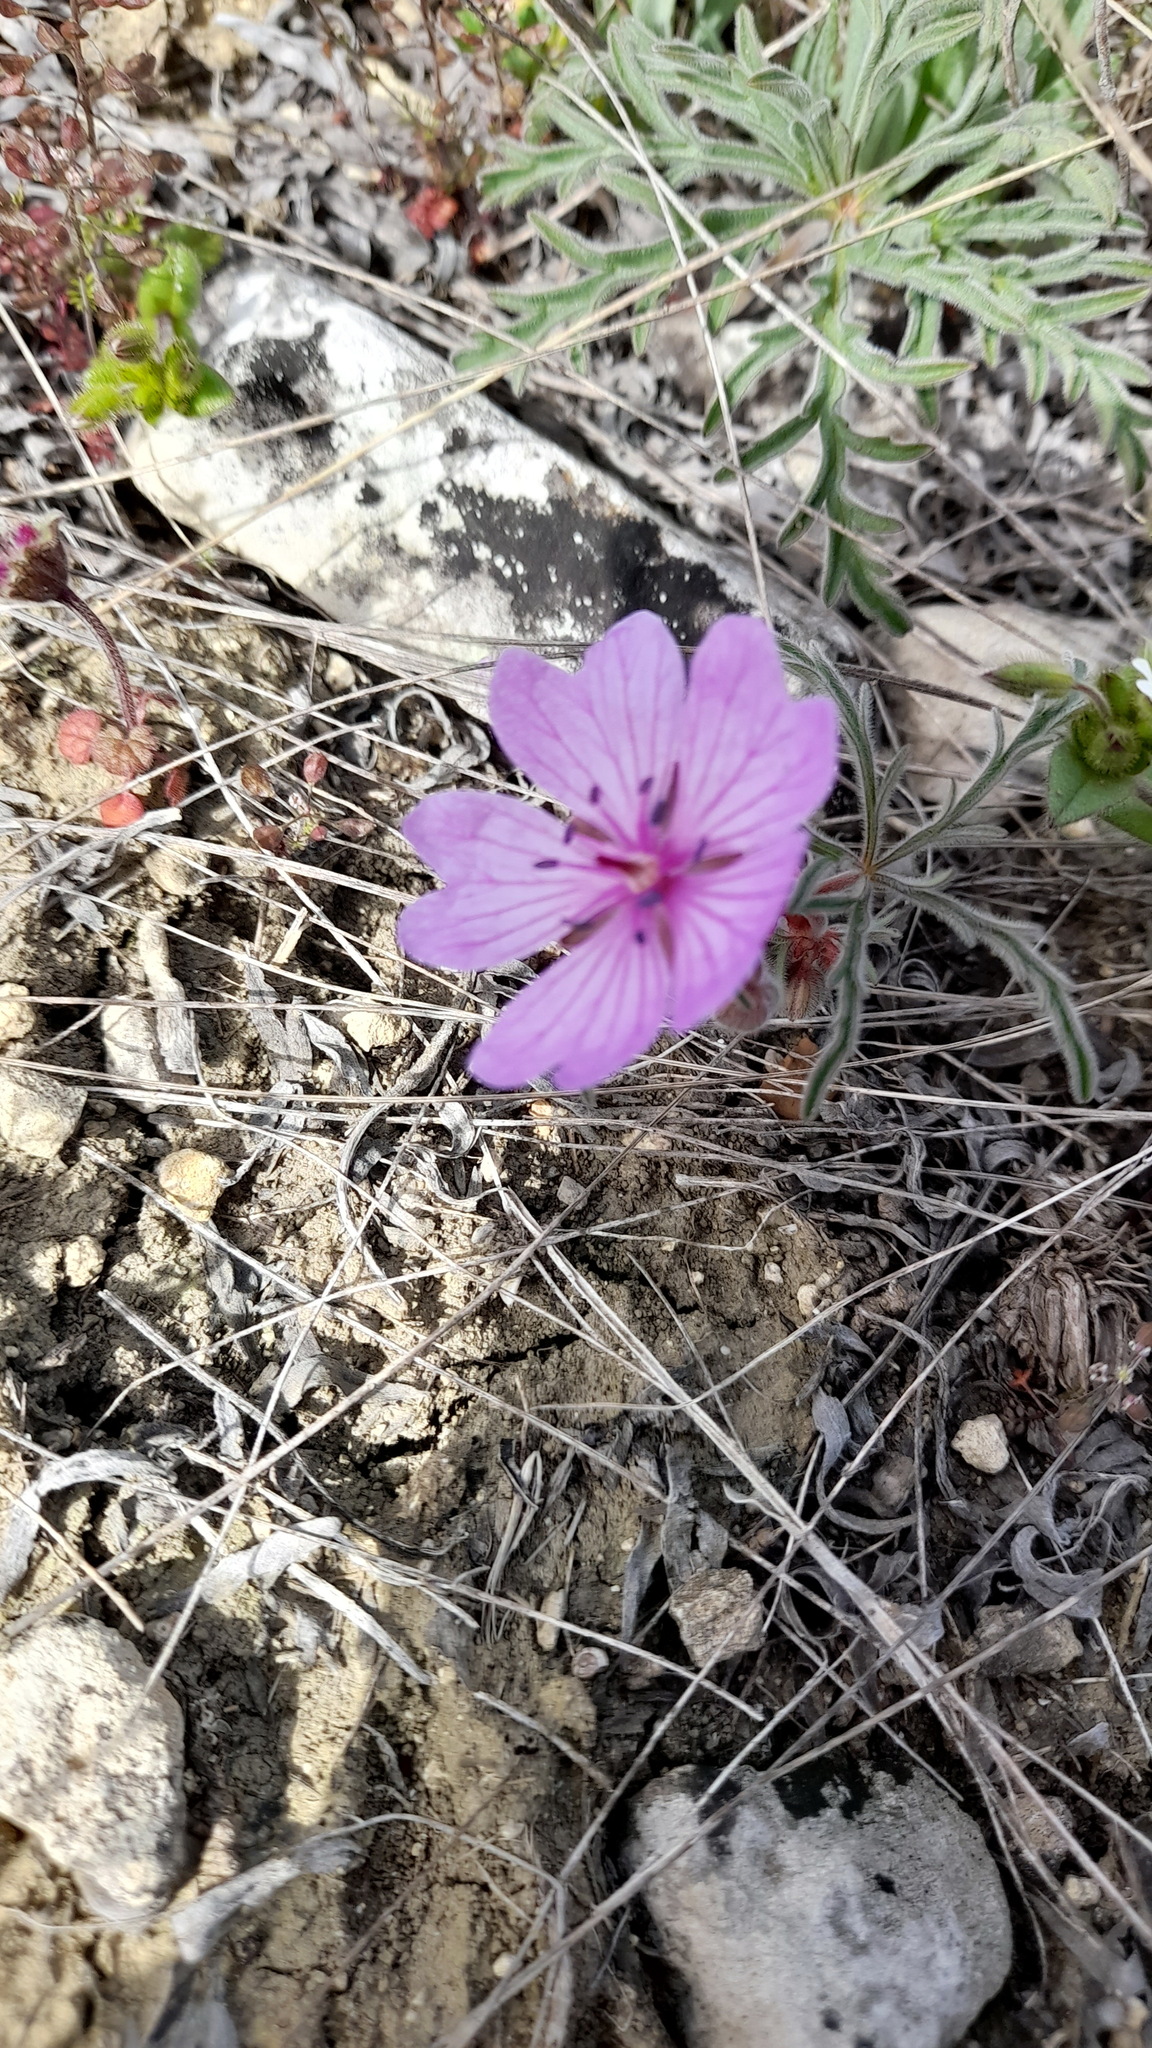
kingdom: Plantae
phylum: Tracheophyta
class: Magnoliopsida
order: Geraniales
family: Geraniaceae
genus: Geranium
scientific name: Geranium tuberosum
